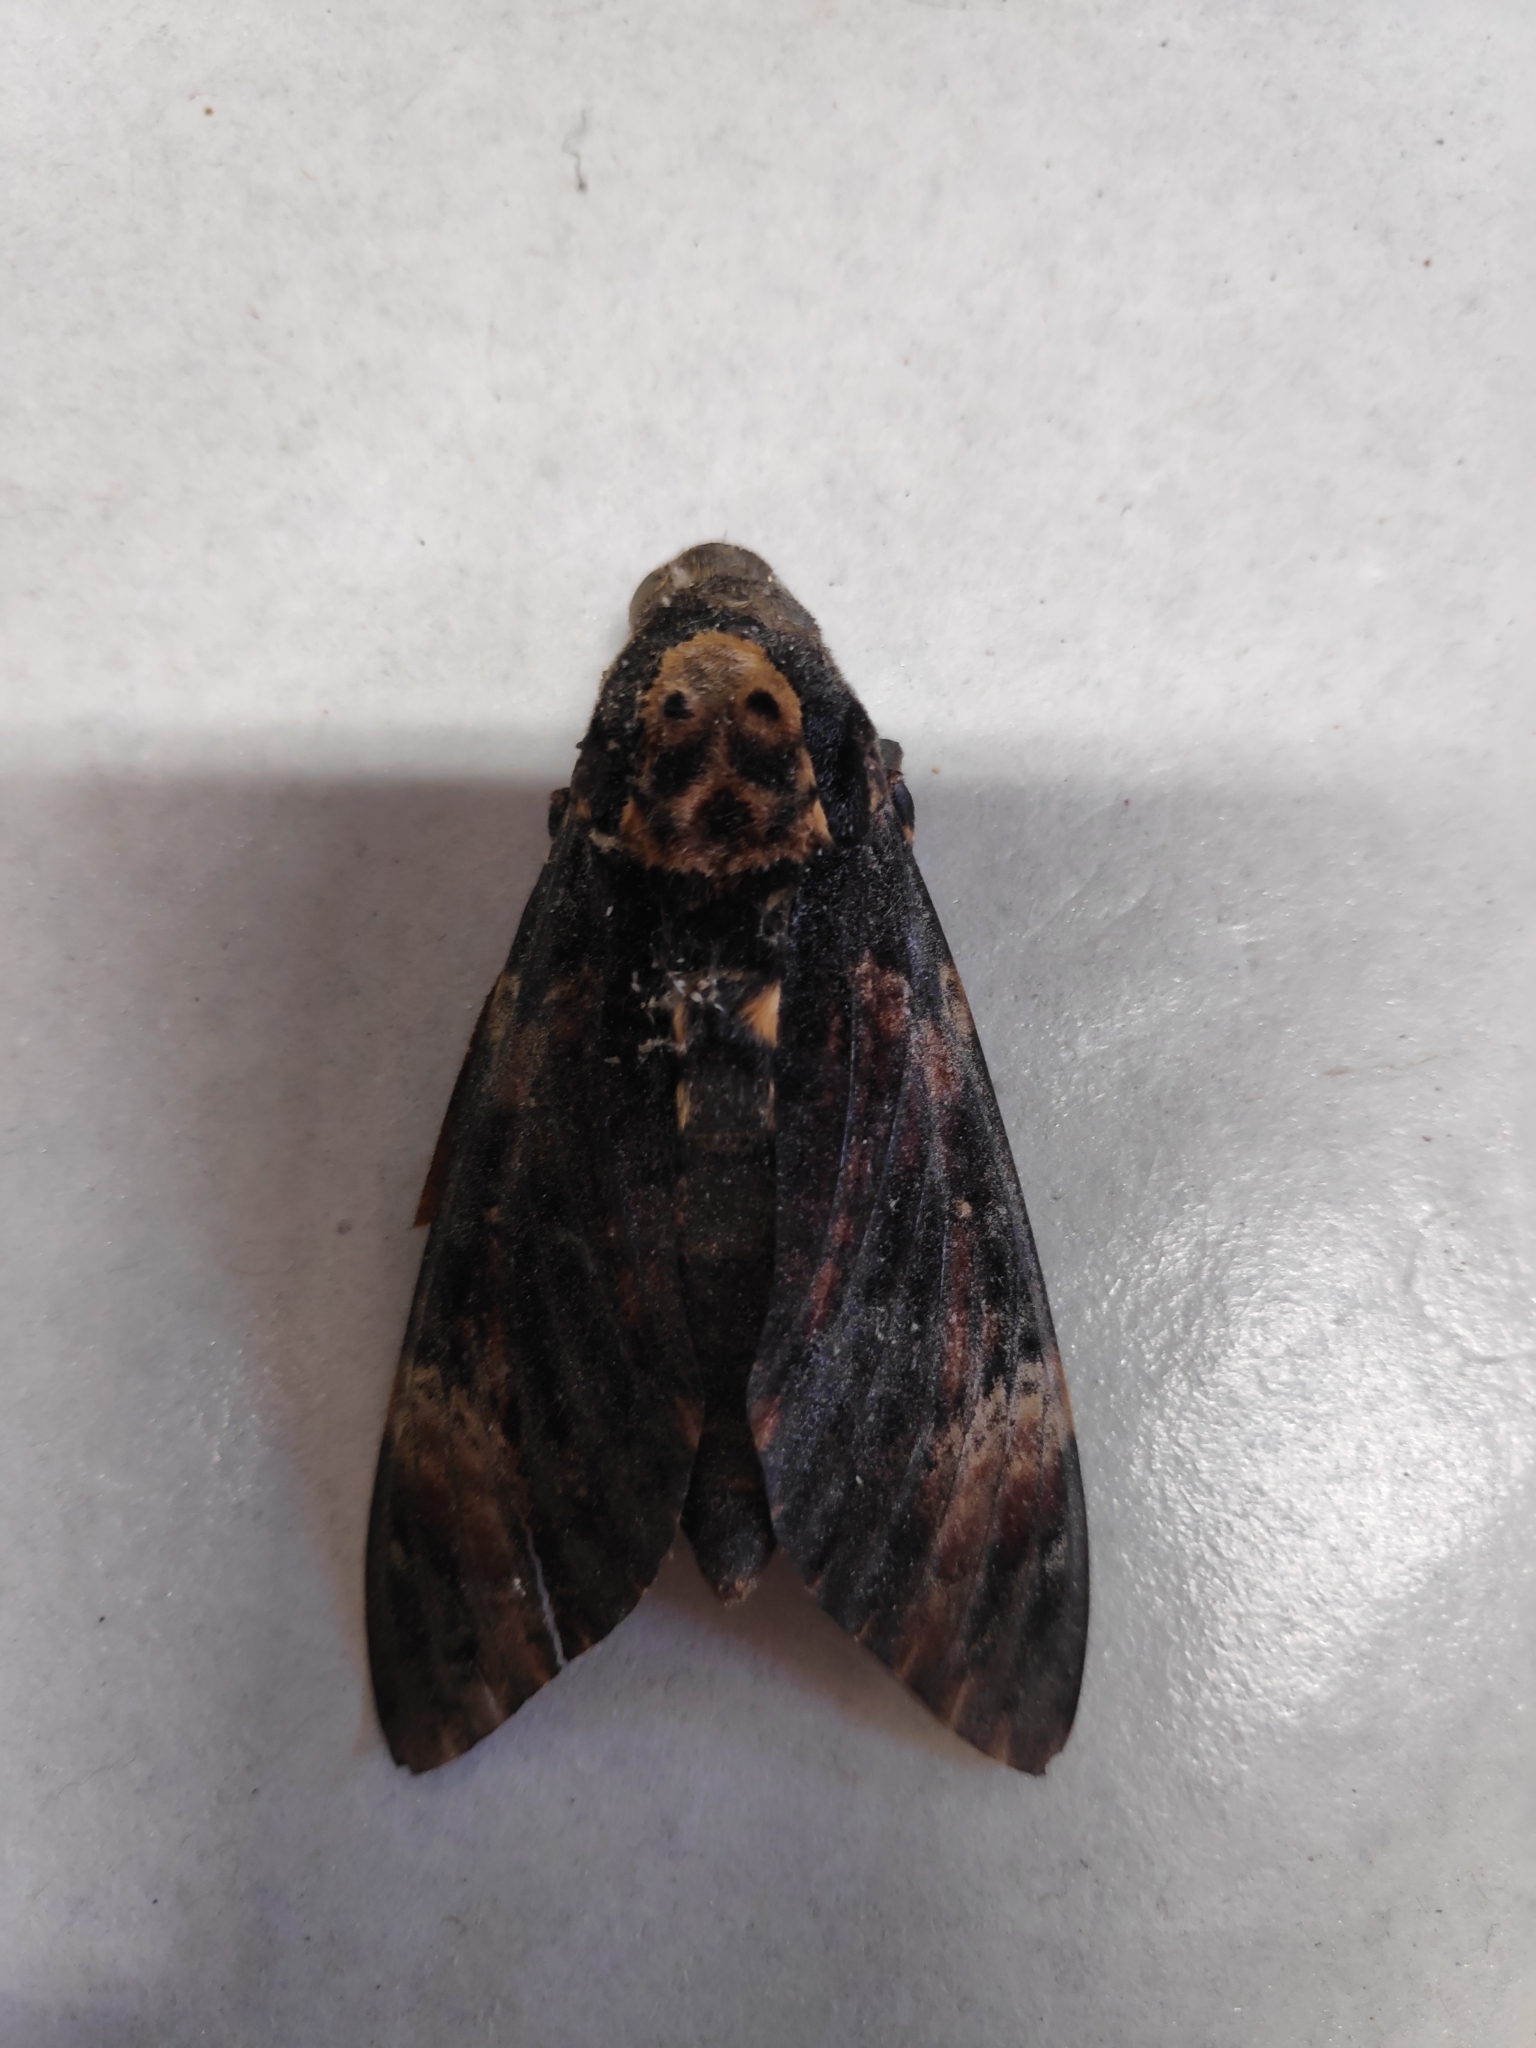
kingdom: Animalia
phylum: Arthropoda
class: Insecta
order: Lepidoptera
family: Sphingidae
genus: Acherontia
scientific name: Acherontia atropos
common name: Death's-head hawk moth
